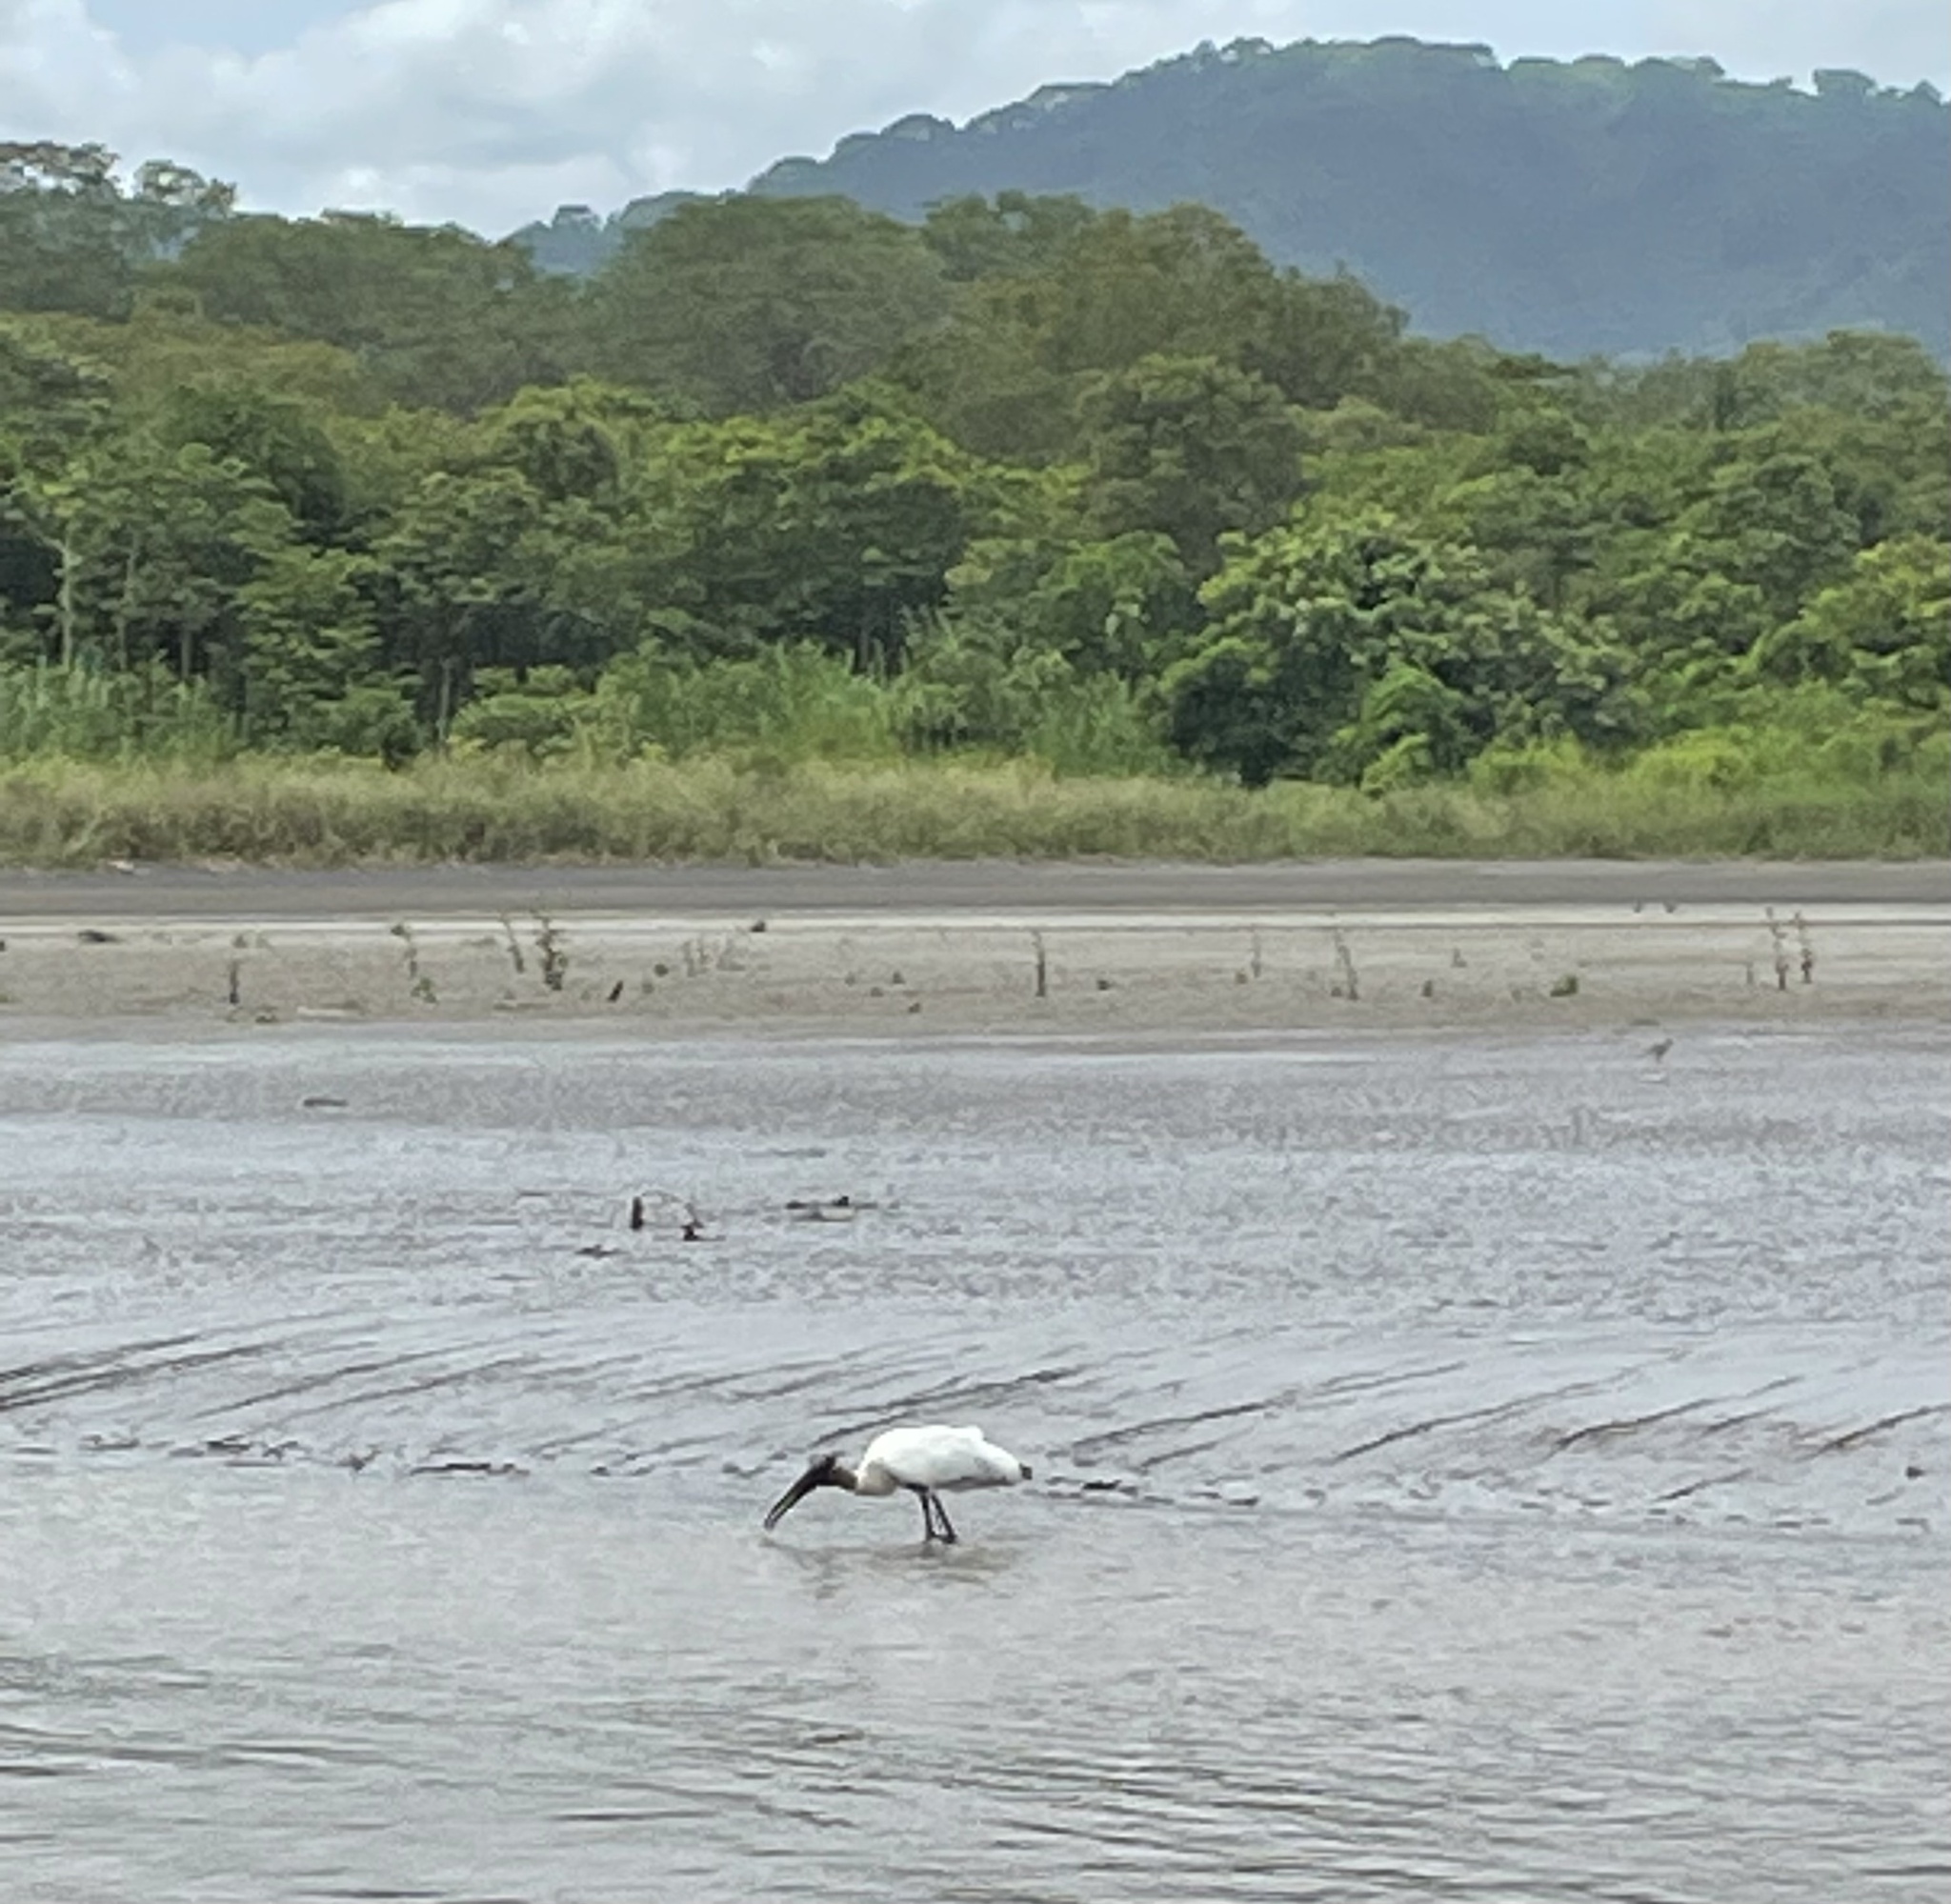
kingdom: Animalia
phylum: Chordata
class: Aves
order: Ciconiiformes
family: Ciconiidae
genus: Mycteria
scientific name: Mycteria americana
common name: Wood stork
